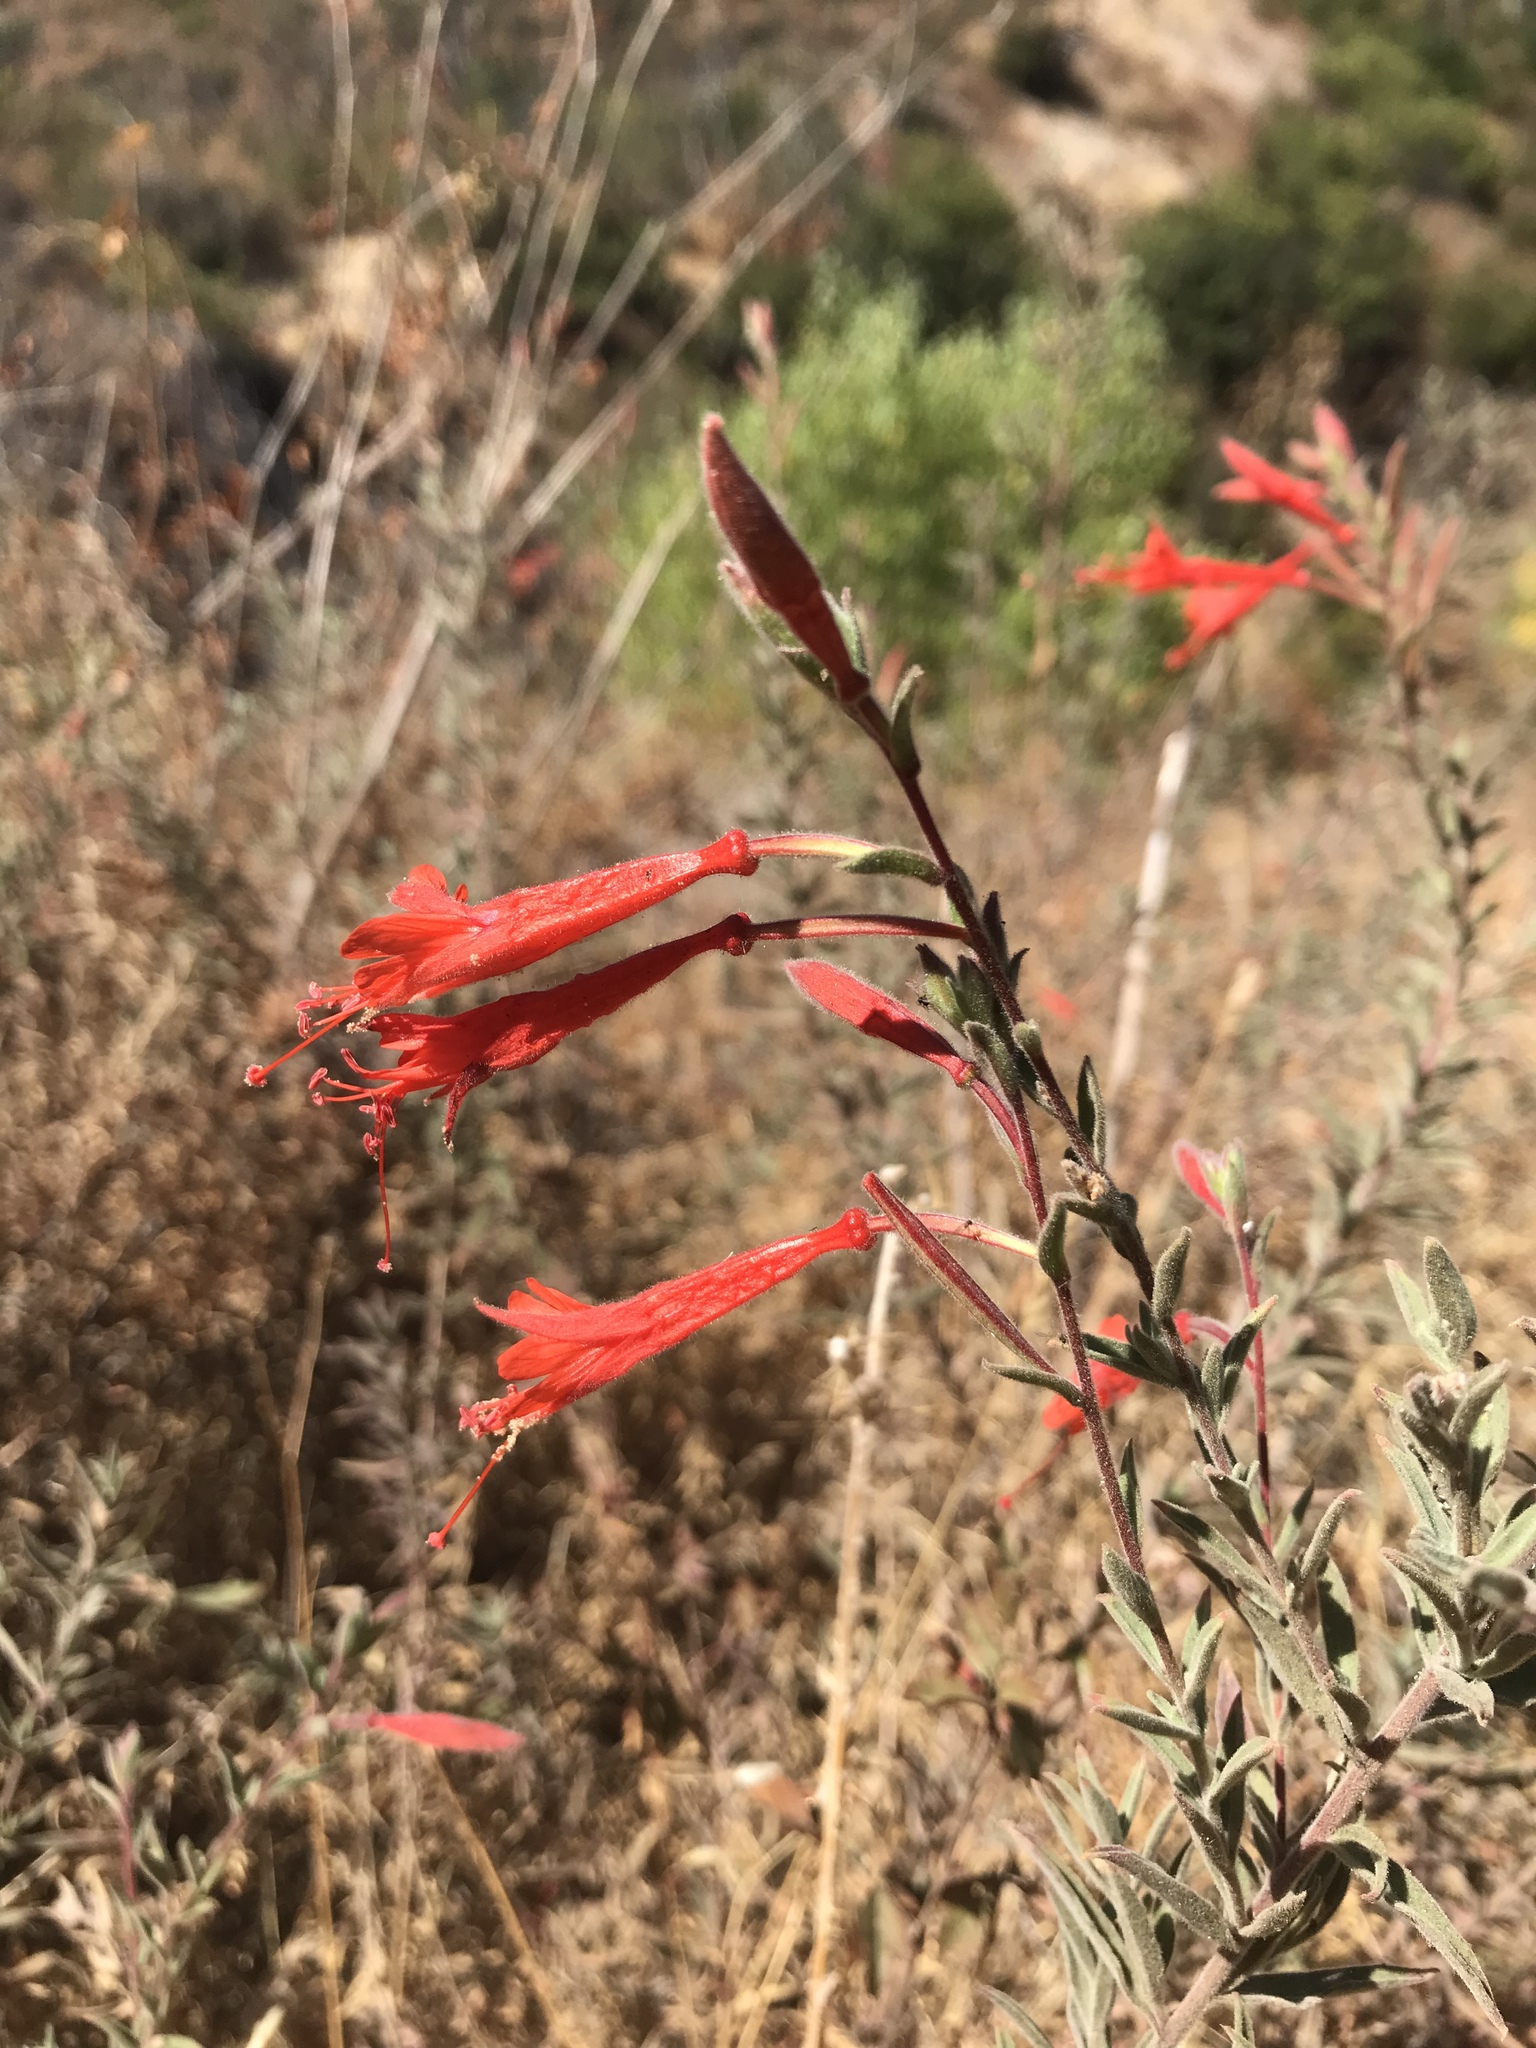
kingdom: Plantae
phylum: Tracheophyta
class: Magnoliopsida
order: Myrtales
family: Onagraceae
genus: Epilobium
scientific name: Epilobium canum
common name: California-fuchsia
